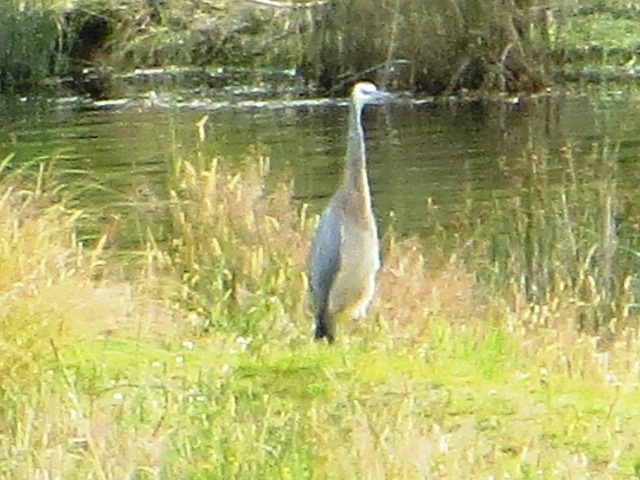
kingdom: Animalia
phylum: Chordata
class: Aves
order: Pelecaniformes
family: Ardeidae
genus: Egretta
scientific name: Egretta novaehollandiae
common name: White-faced heron
